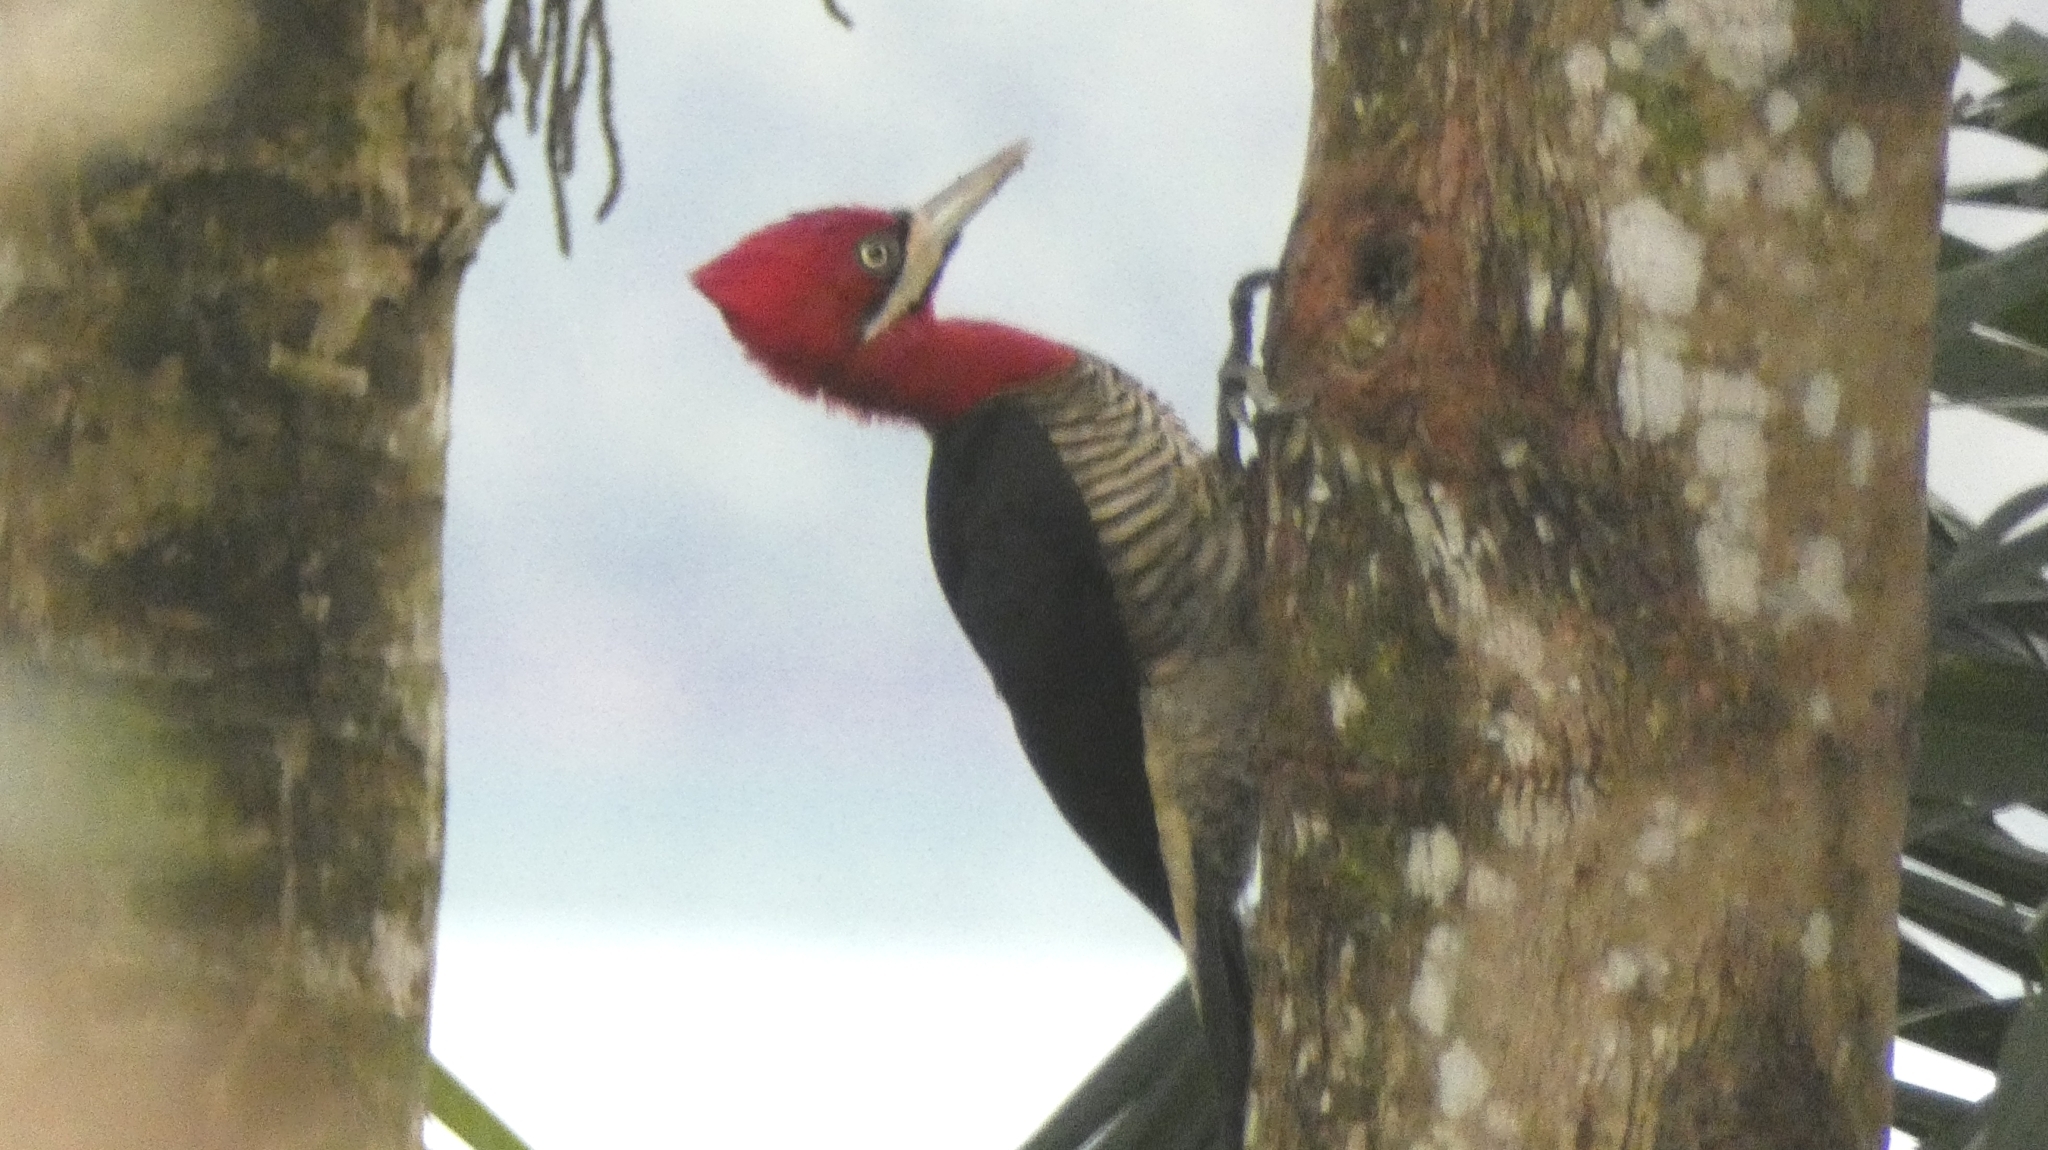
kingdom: Animalia
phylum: Chordata
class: Aves
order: Piciformes
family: Picidae
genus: Campephilus
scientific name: Campephilus robustus
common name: Robust woodpecker
